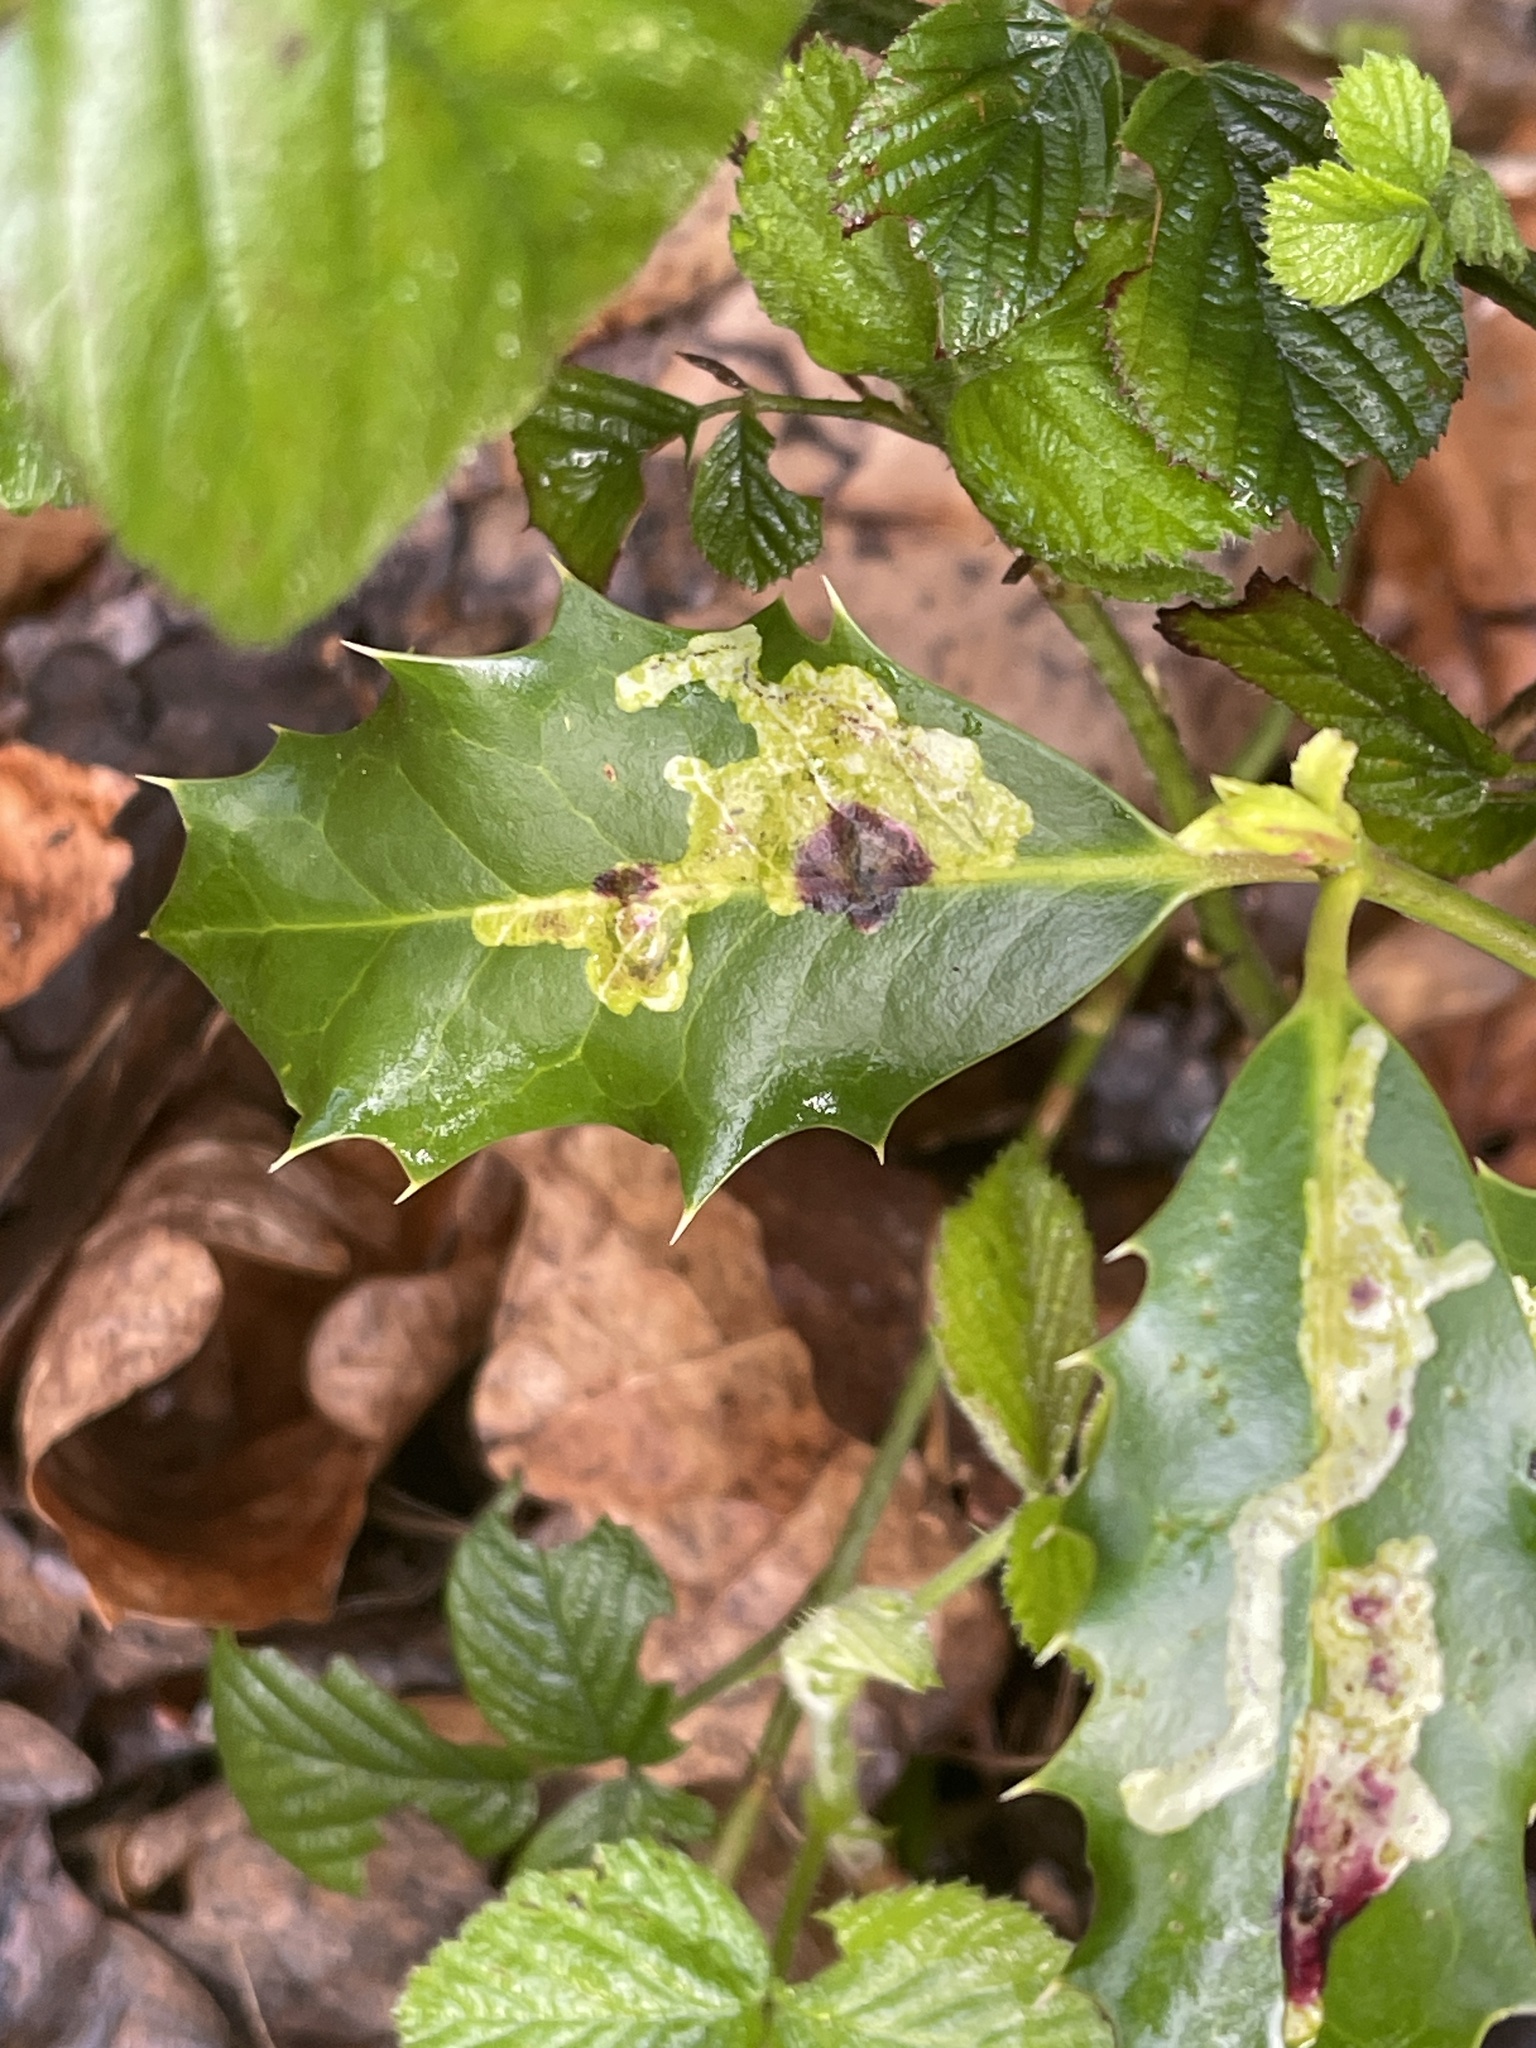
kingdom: Animalia
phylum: Arthropoda
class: Insecta
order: Diptera
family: Agromyzidae
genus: Phytomyza
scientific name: Phytomyza ilicis
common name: Holly leafminer
